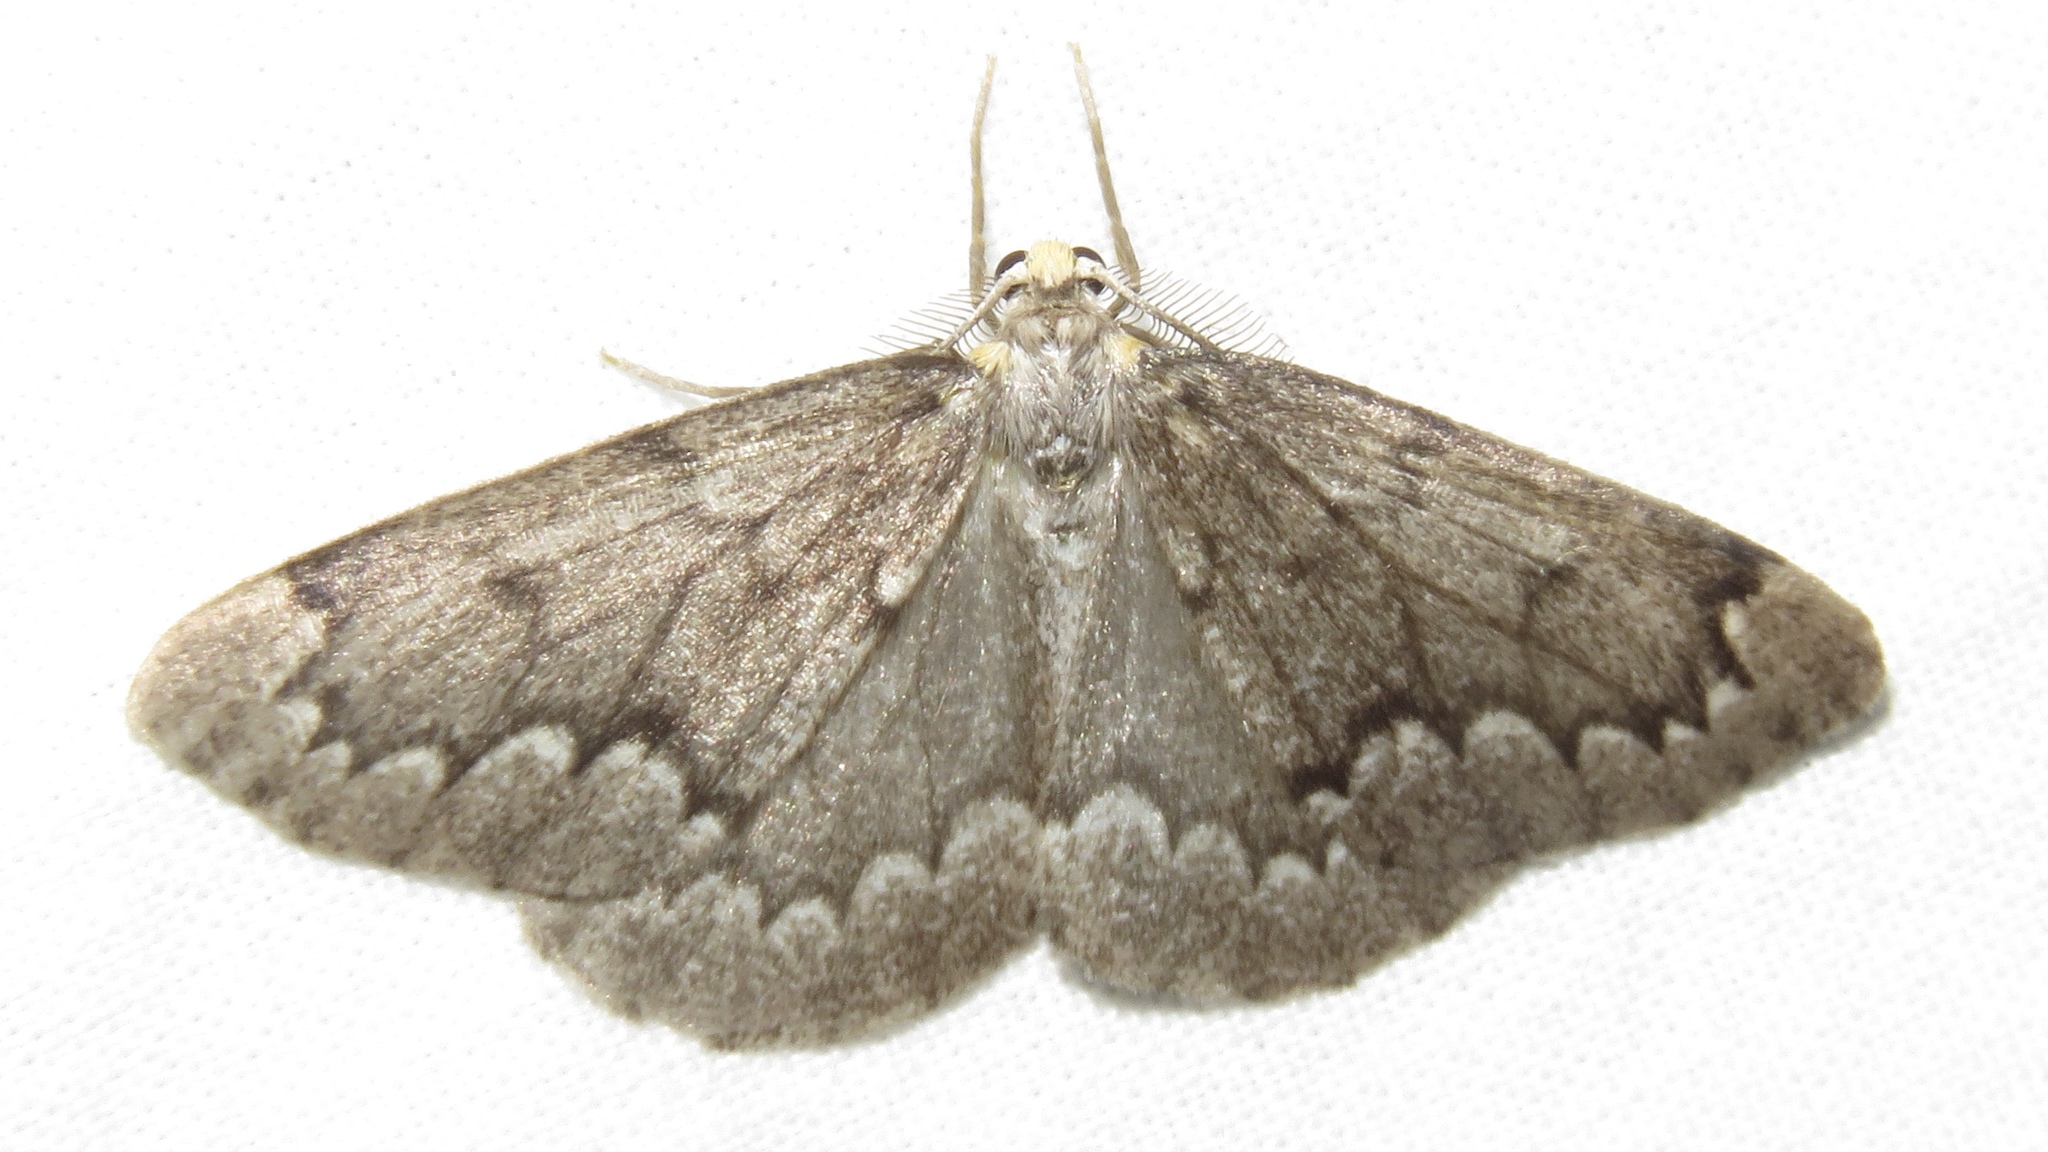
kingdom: Animalia
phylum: Arthropoda
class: Insecta
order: Lepidoptera
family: Geometridae
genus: Nepytia
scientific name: Nepytia canosaria
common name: False hemlock looper
